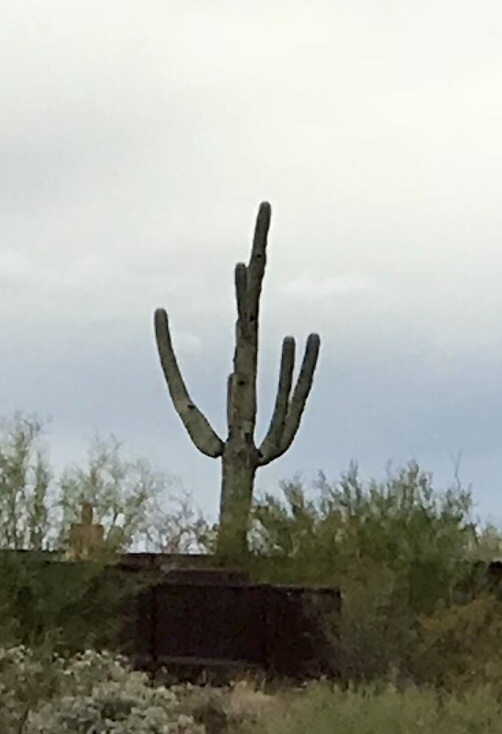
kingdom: Plantae
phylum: Tracheophyta
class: Magnoliopsida
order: Caryophyllales
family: Cactaceae
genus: Carnegiea
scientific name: Carnegiea gigantea
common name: Saguaro
